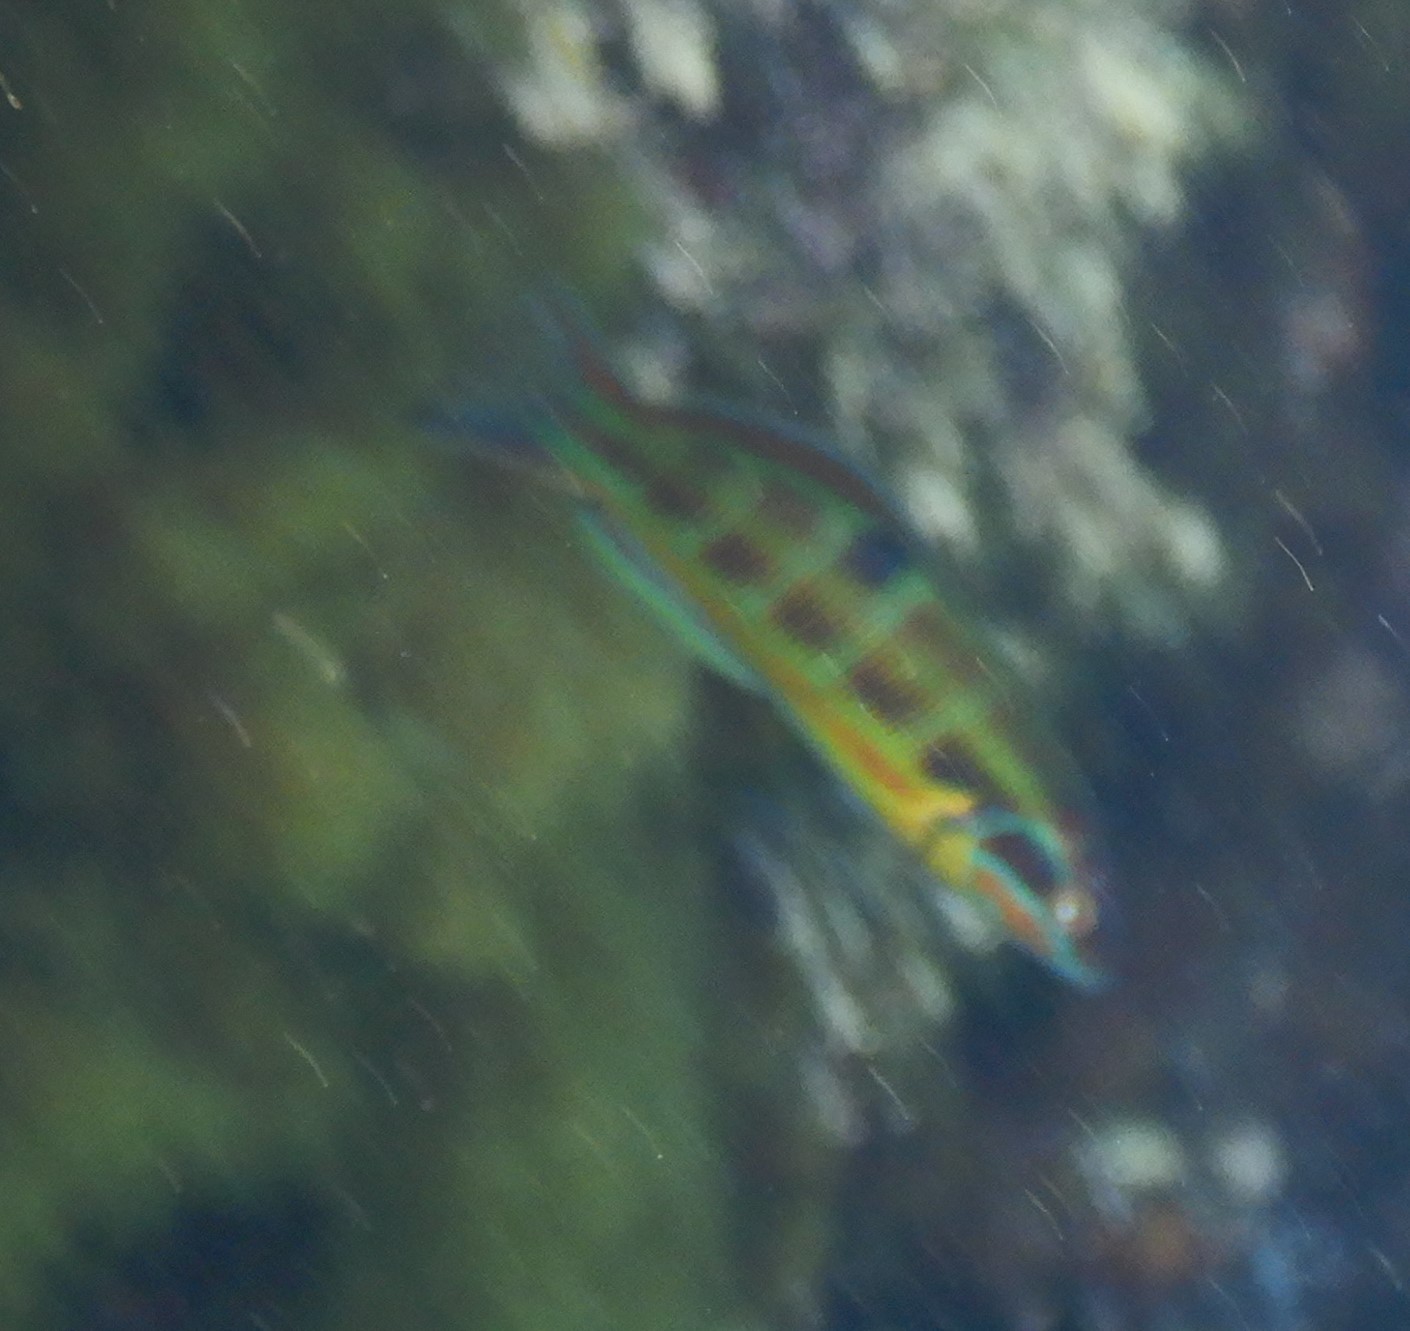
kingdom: Animalia
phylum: Chordata
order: Perciformes
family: Labridae
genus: Thalassoma
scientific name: Thalassoma pavo
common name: Ornate wrasse
